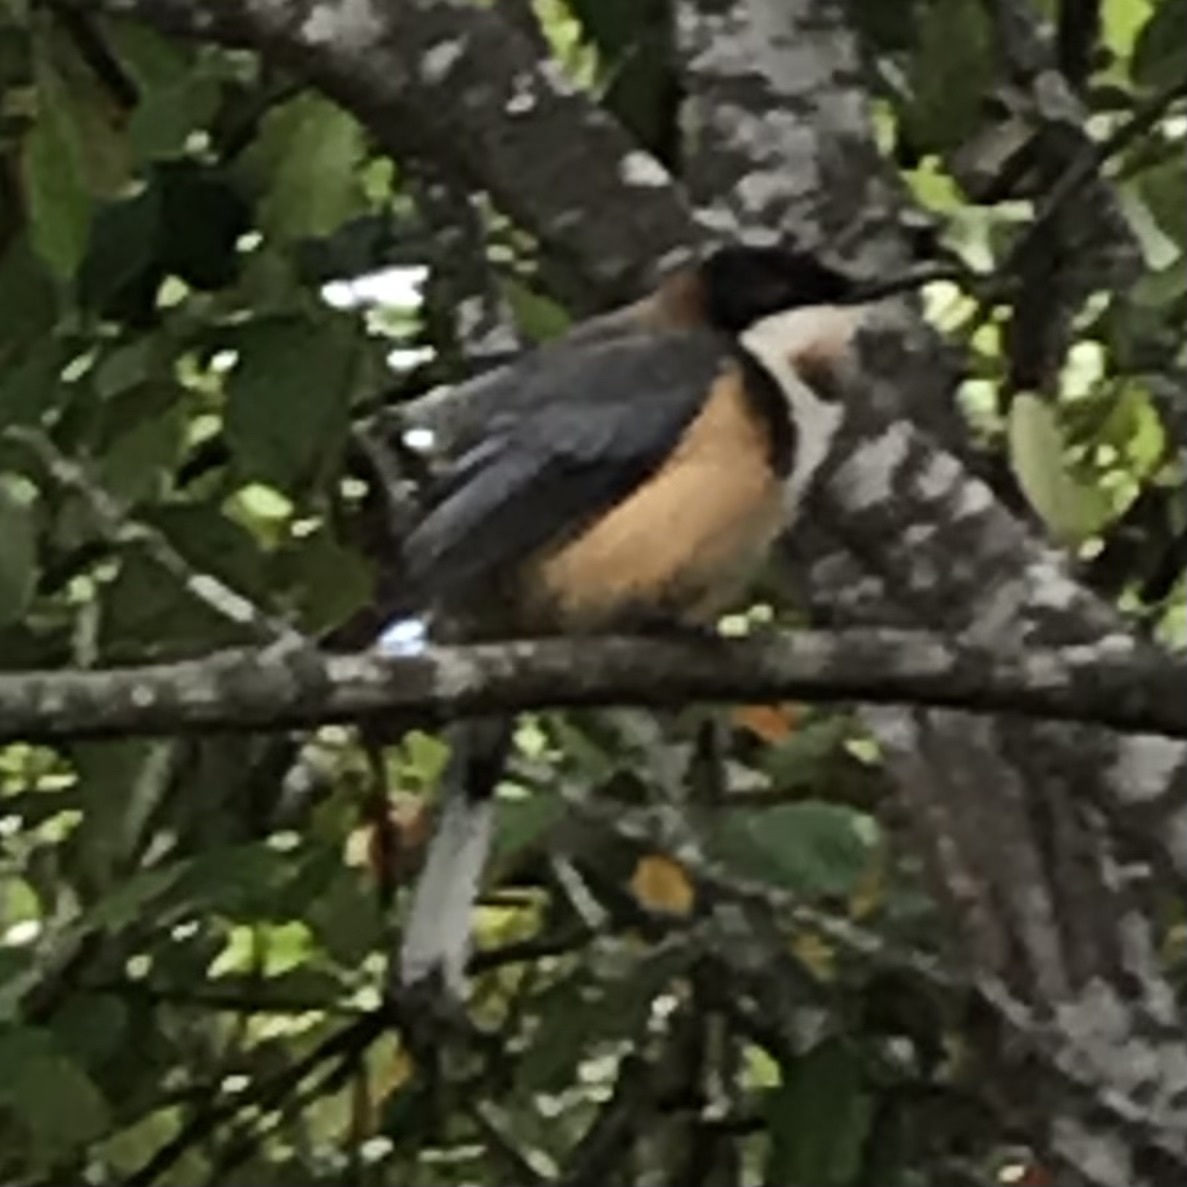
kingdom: Animalia
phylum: Chordata
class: Aves
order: Passeriformes
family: Meliphagidae
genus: Acanthorhynchus
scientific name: Acanthorhynchus tenuirostris
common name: Eastern spinebill
